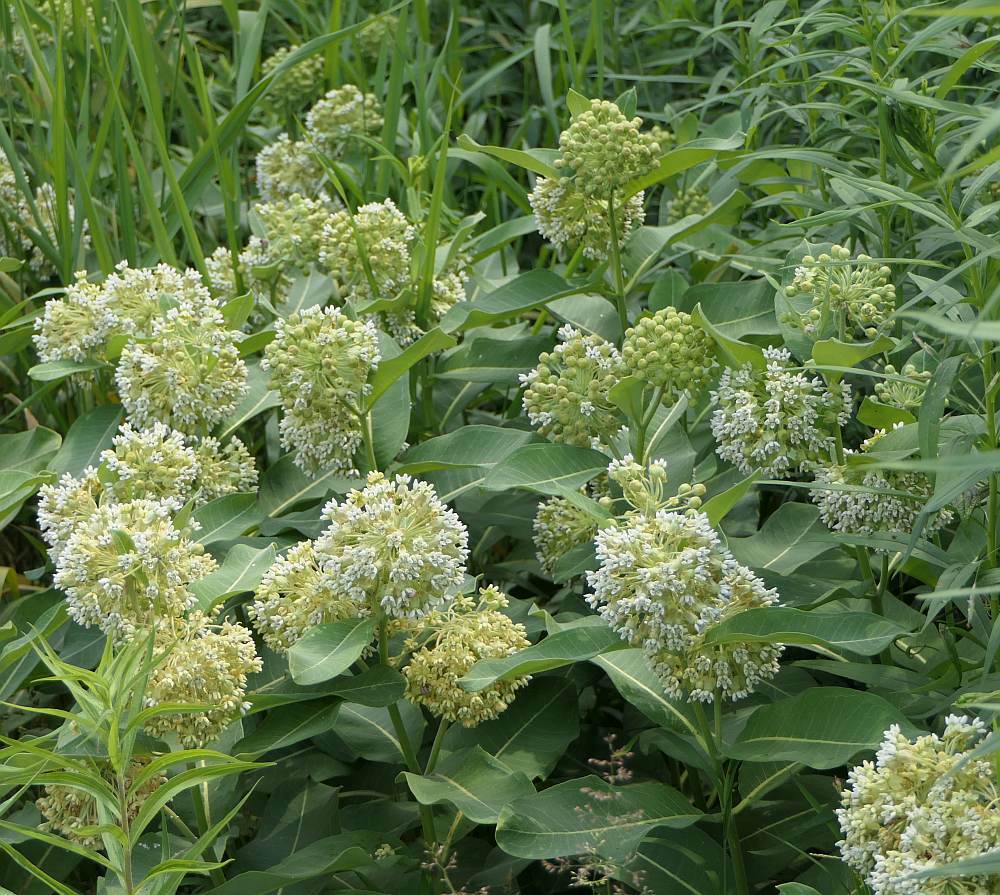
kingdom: Plantae
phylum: Tracheophyta
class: Magnoliopsida
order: Gentianales
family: Apocynaceae
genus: Asclepias
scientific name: Asclepias syriaca
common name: Common milkweed
